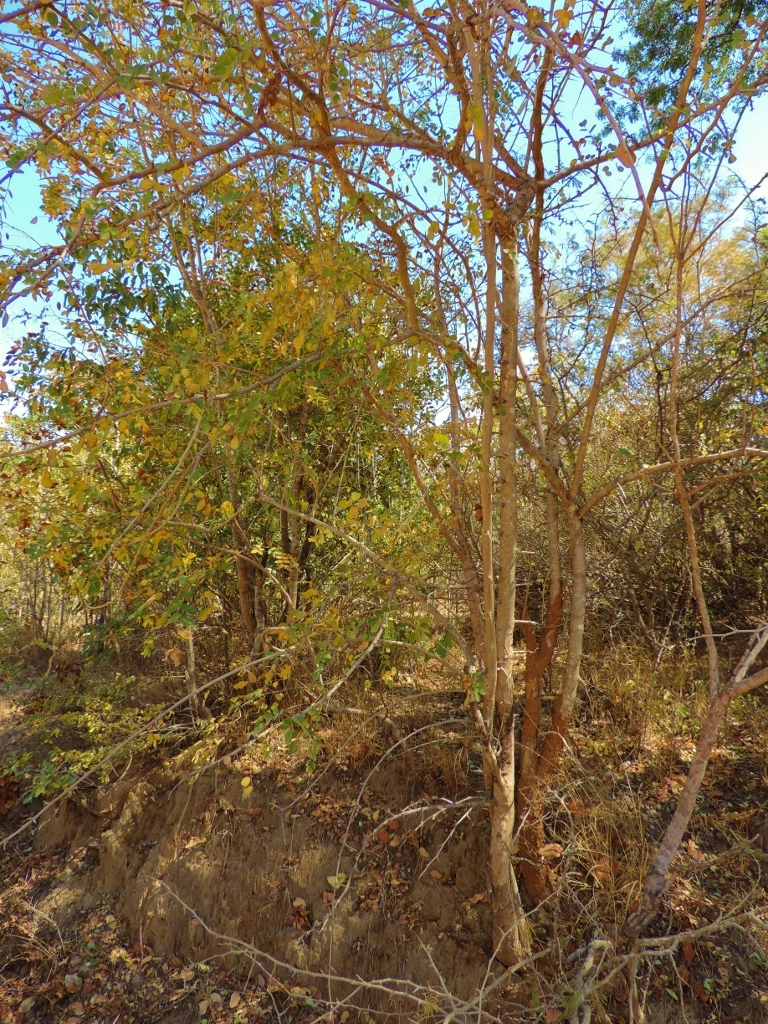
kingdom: Plantae
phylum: Tracheophyta
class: Magnoliopsida
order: Fabales
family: Fabaceae
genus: Dalbergia
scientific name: Dalbergia melanoxylon
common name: African blackwood
